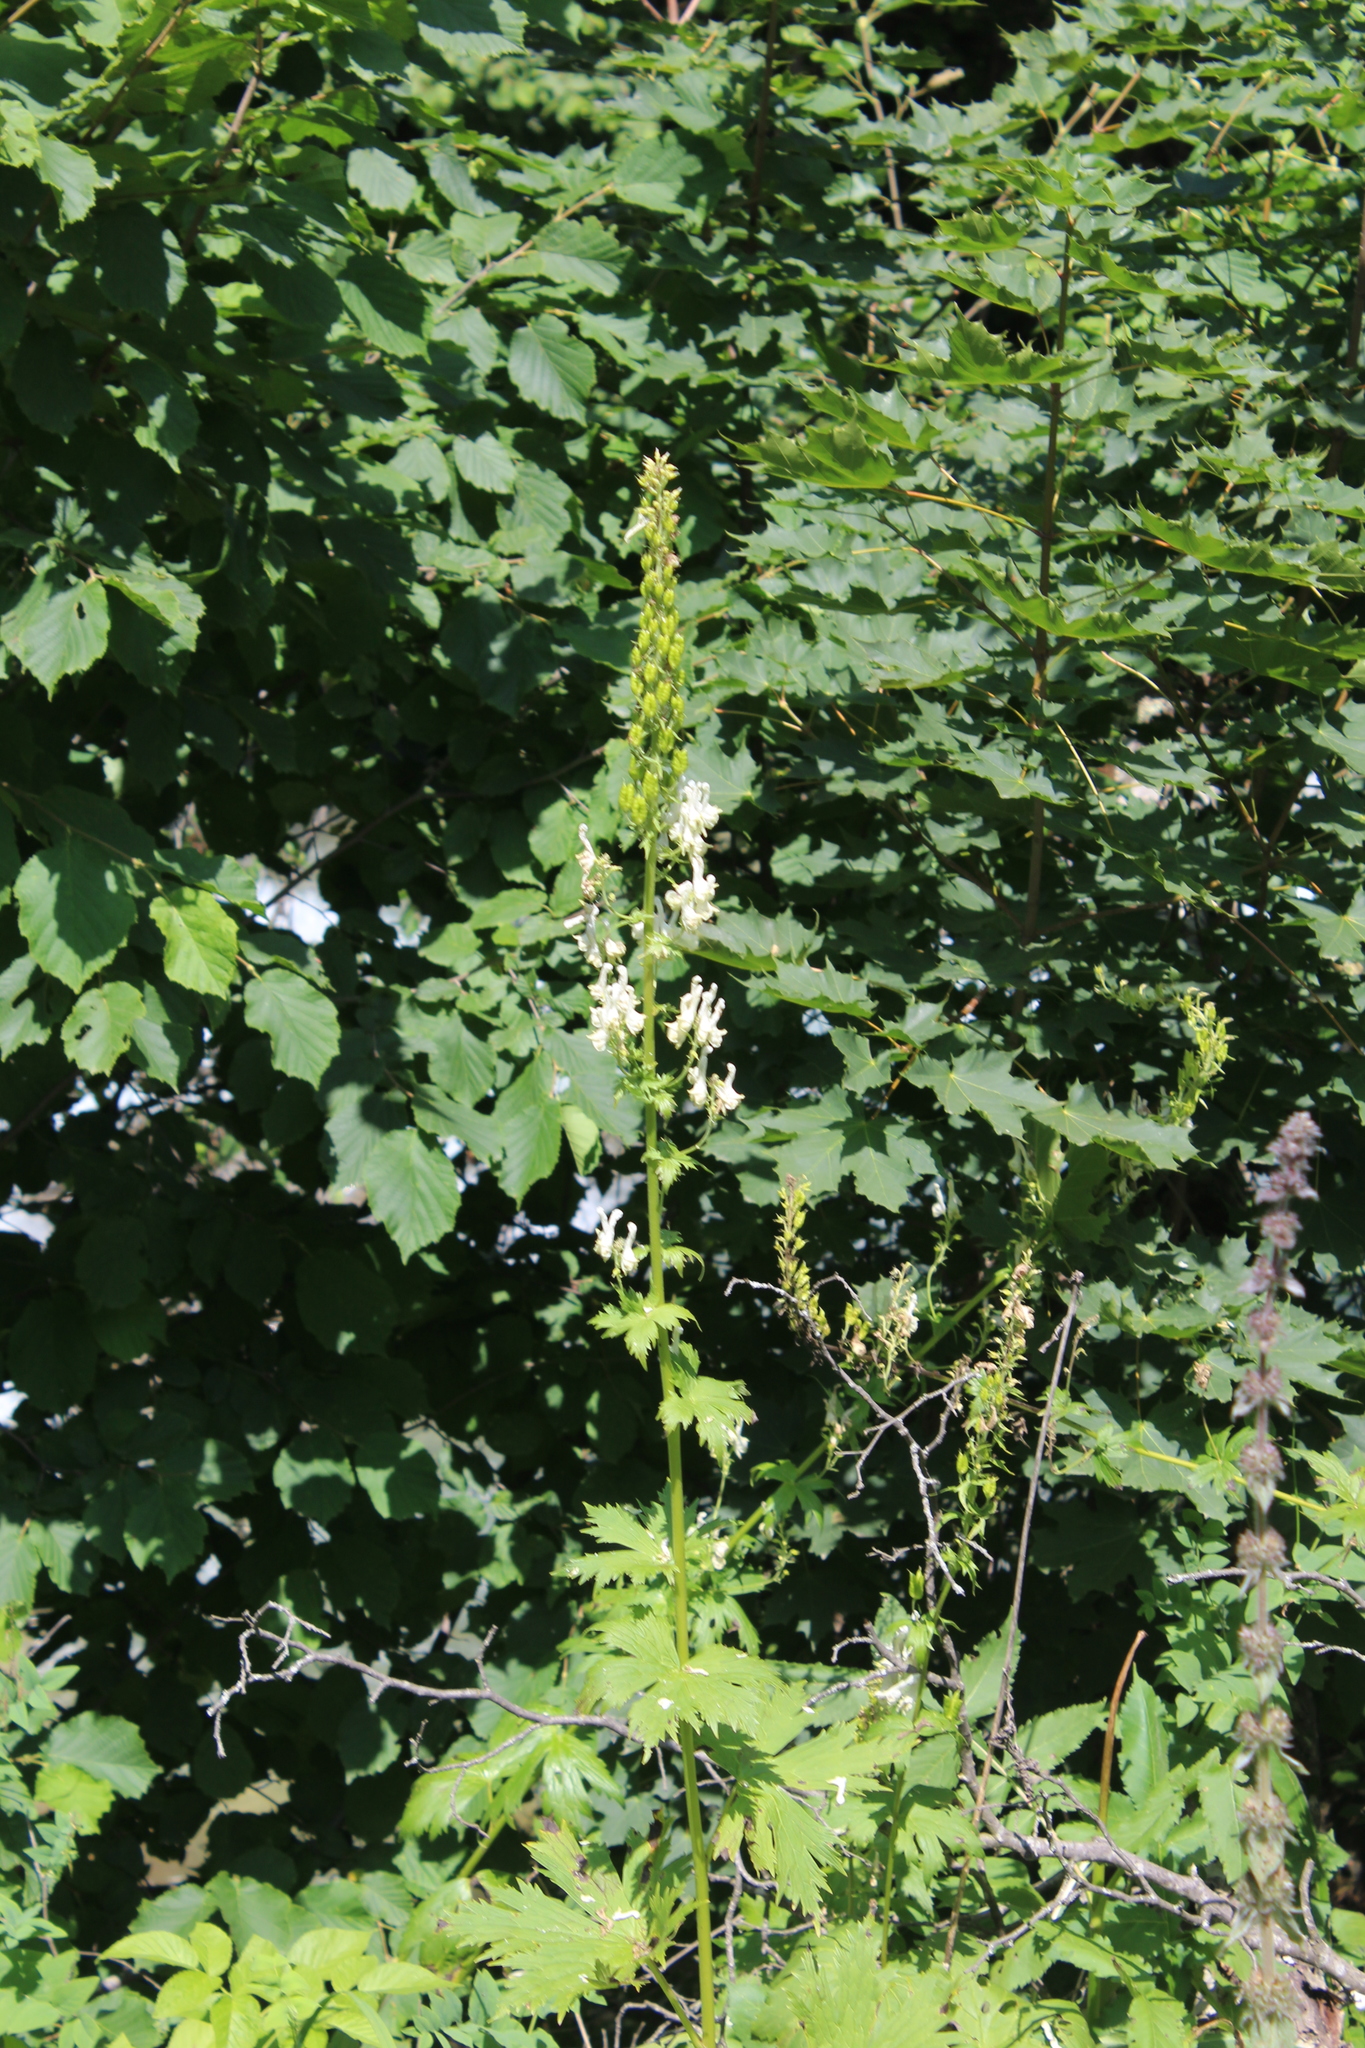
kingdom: Plantae
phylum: Tracheophyta
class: Magnoliopsida
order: Ranunculales
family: Ranunculaceae
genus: Aconitum
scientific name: Aconitum orientale
